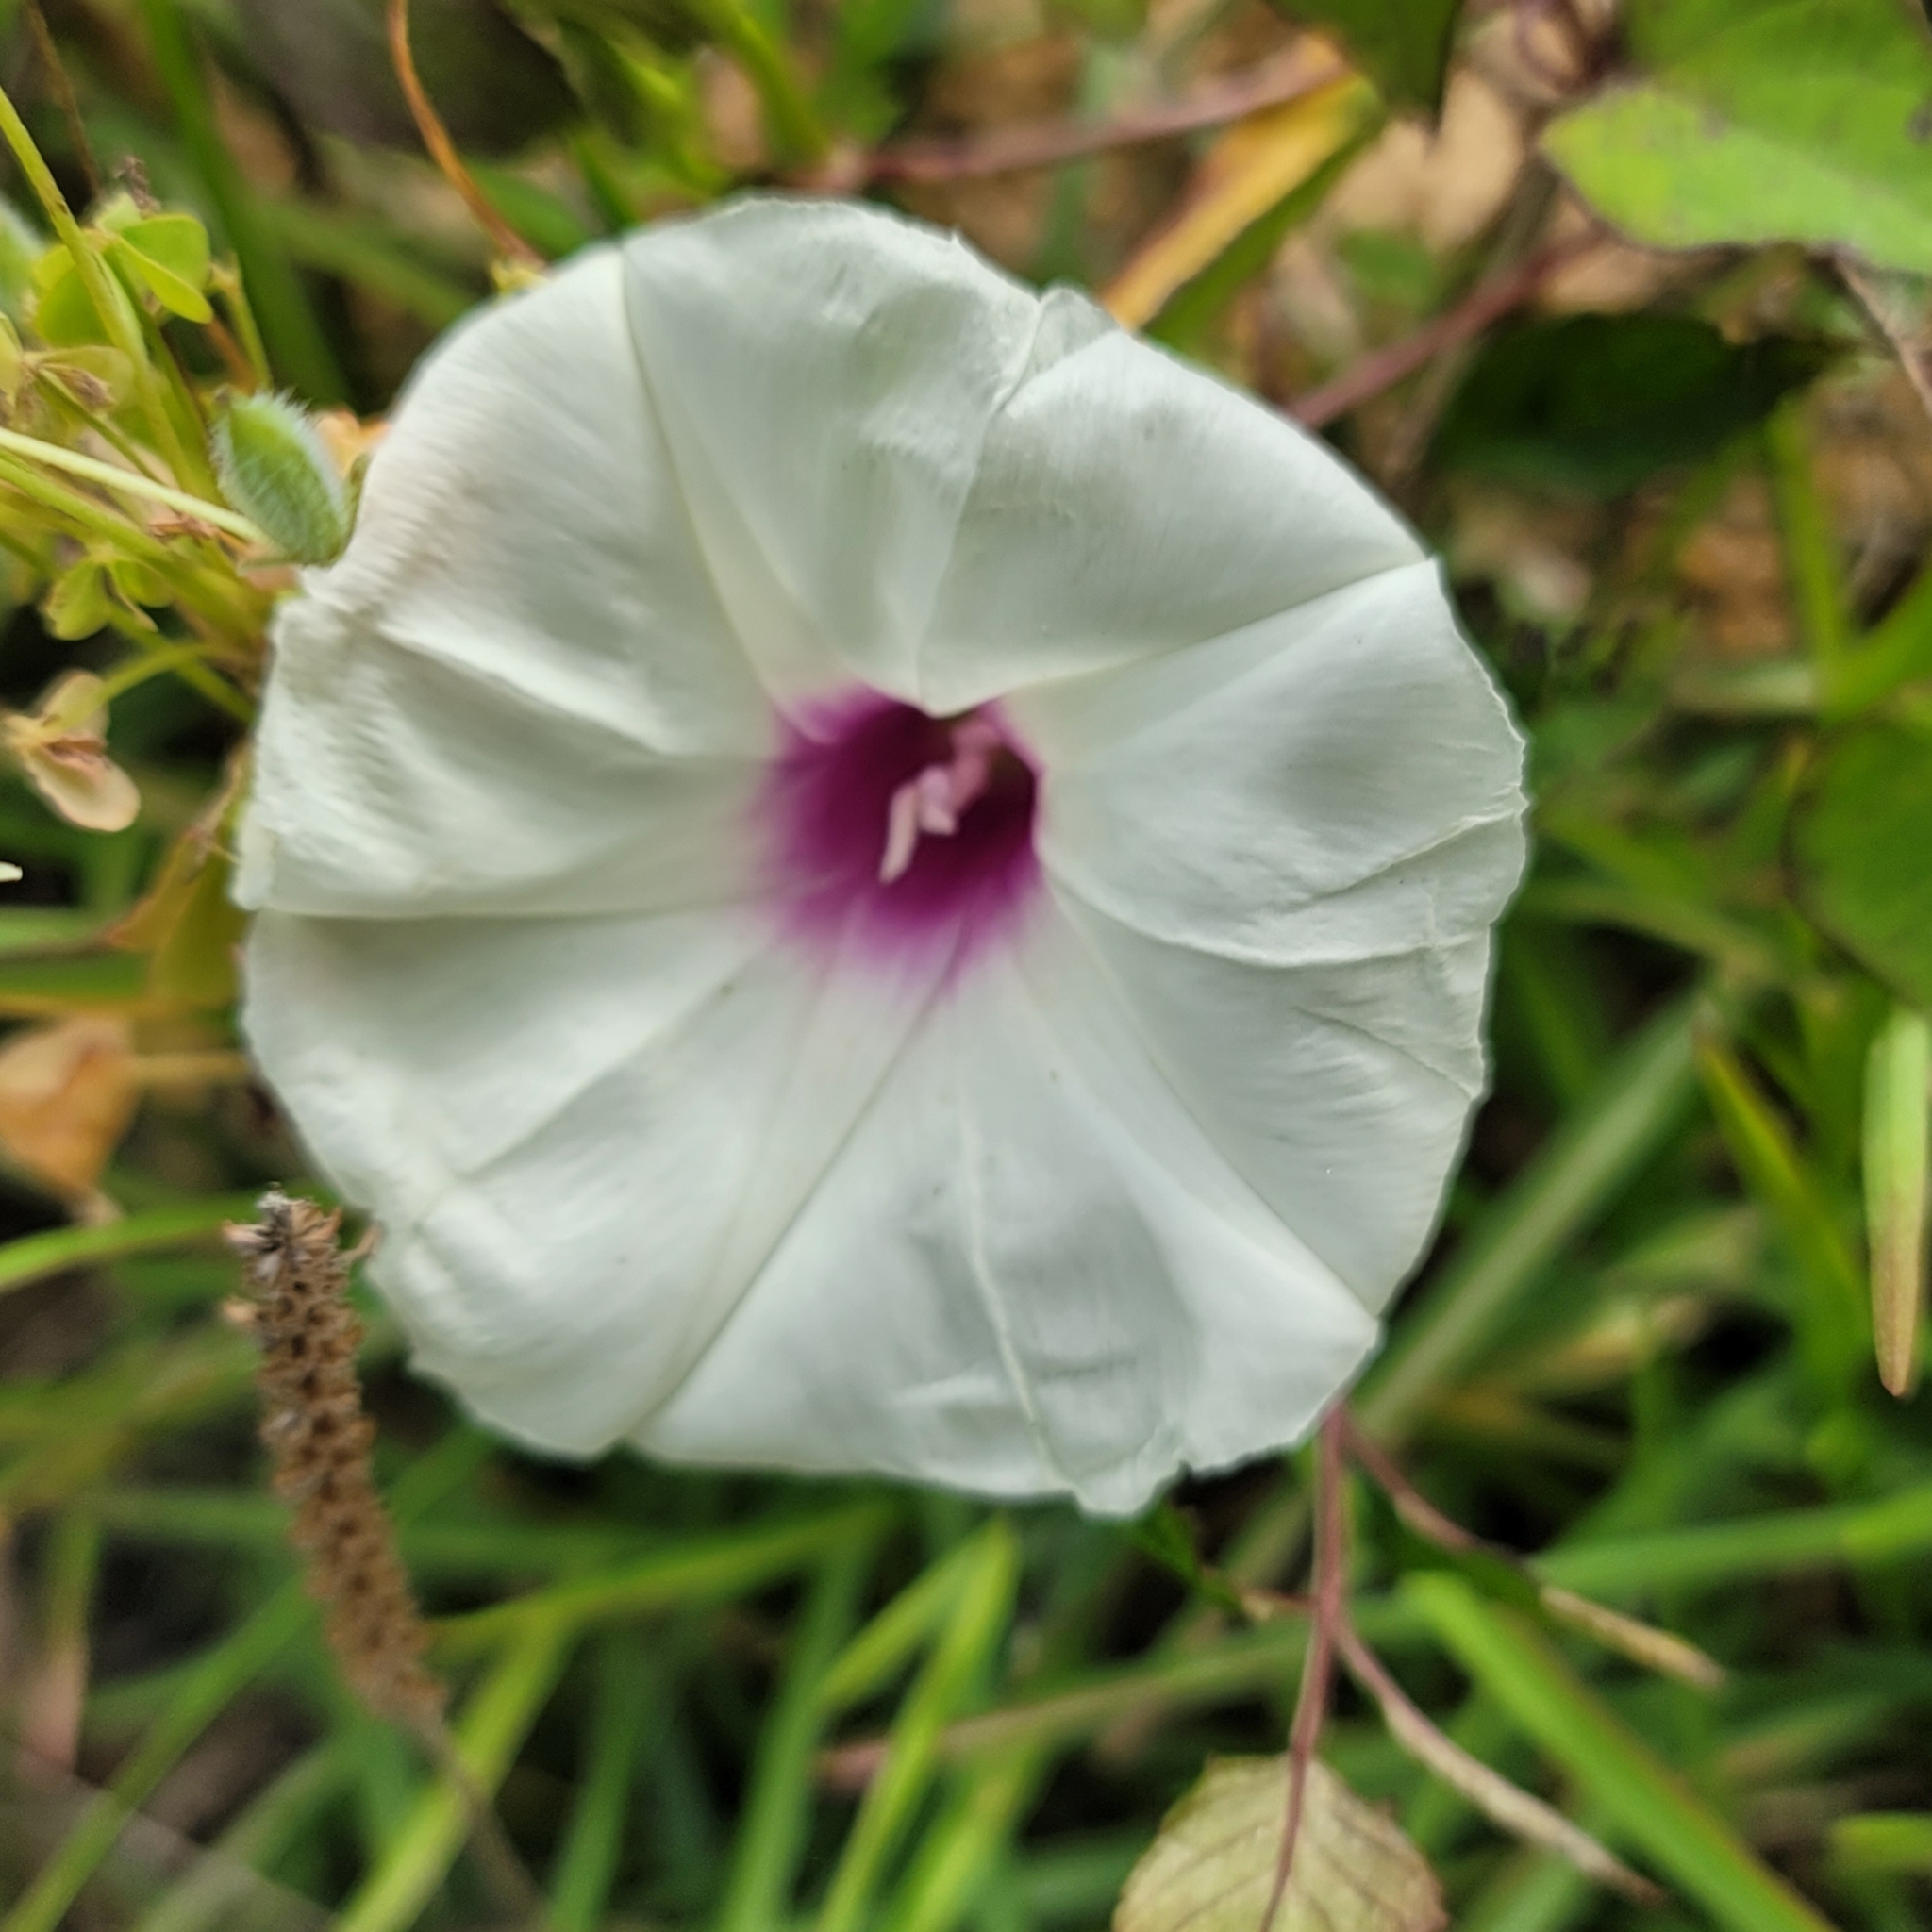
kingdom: Plantae
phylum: Tracheophyta
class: Magnoliopsida
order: Solanales
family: Convolvulaceae
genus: Ipomoea
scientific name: Ipomoea pandurata
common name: Man-of-the-earth
